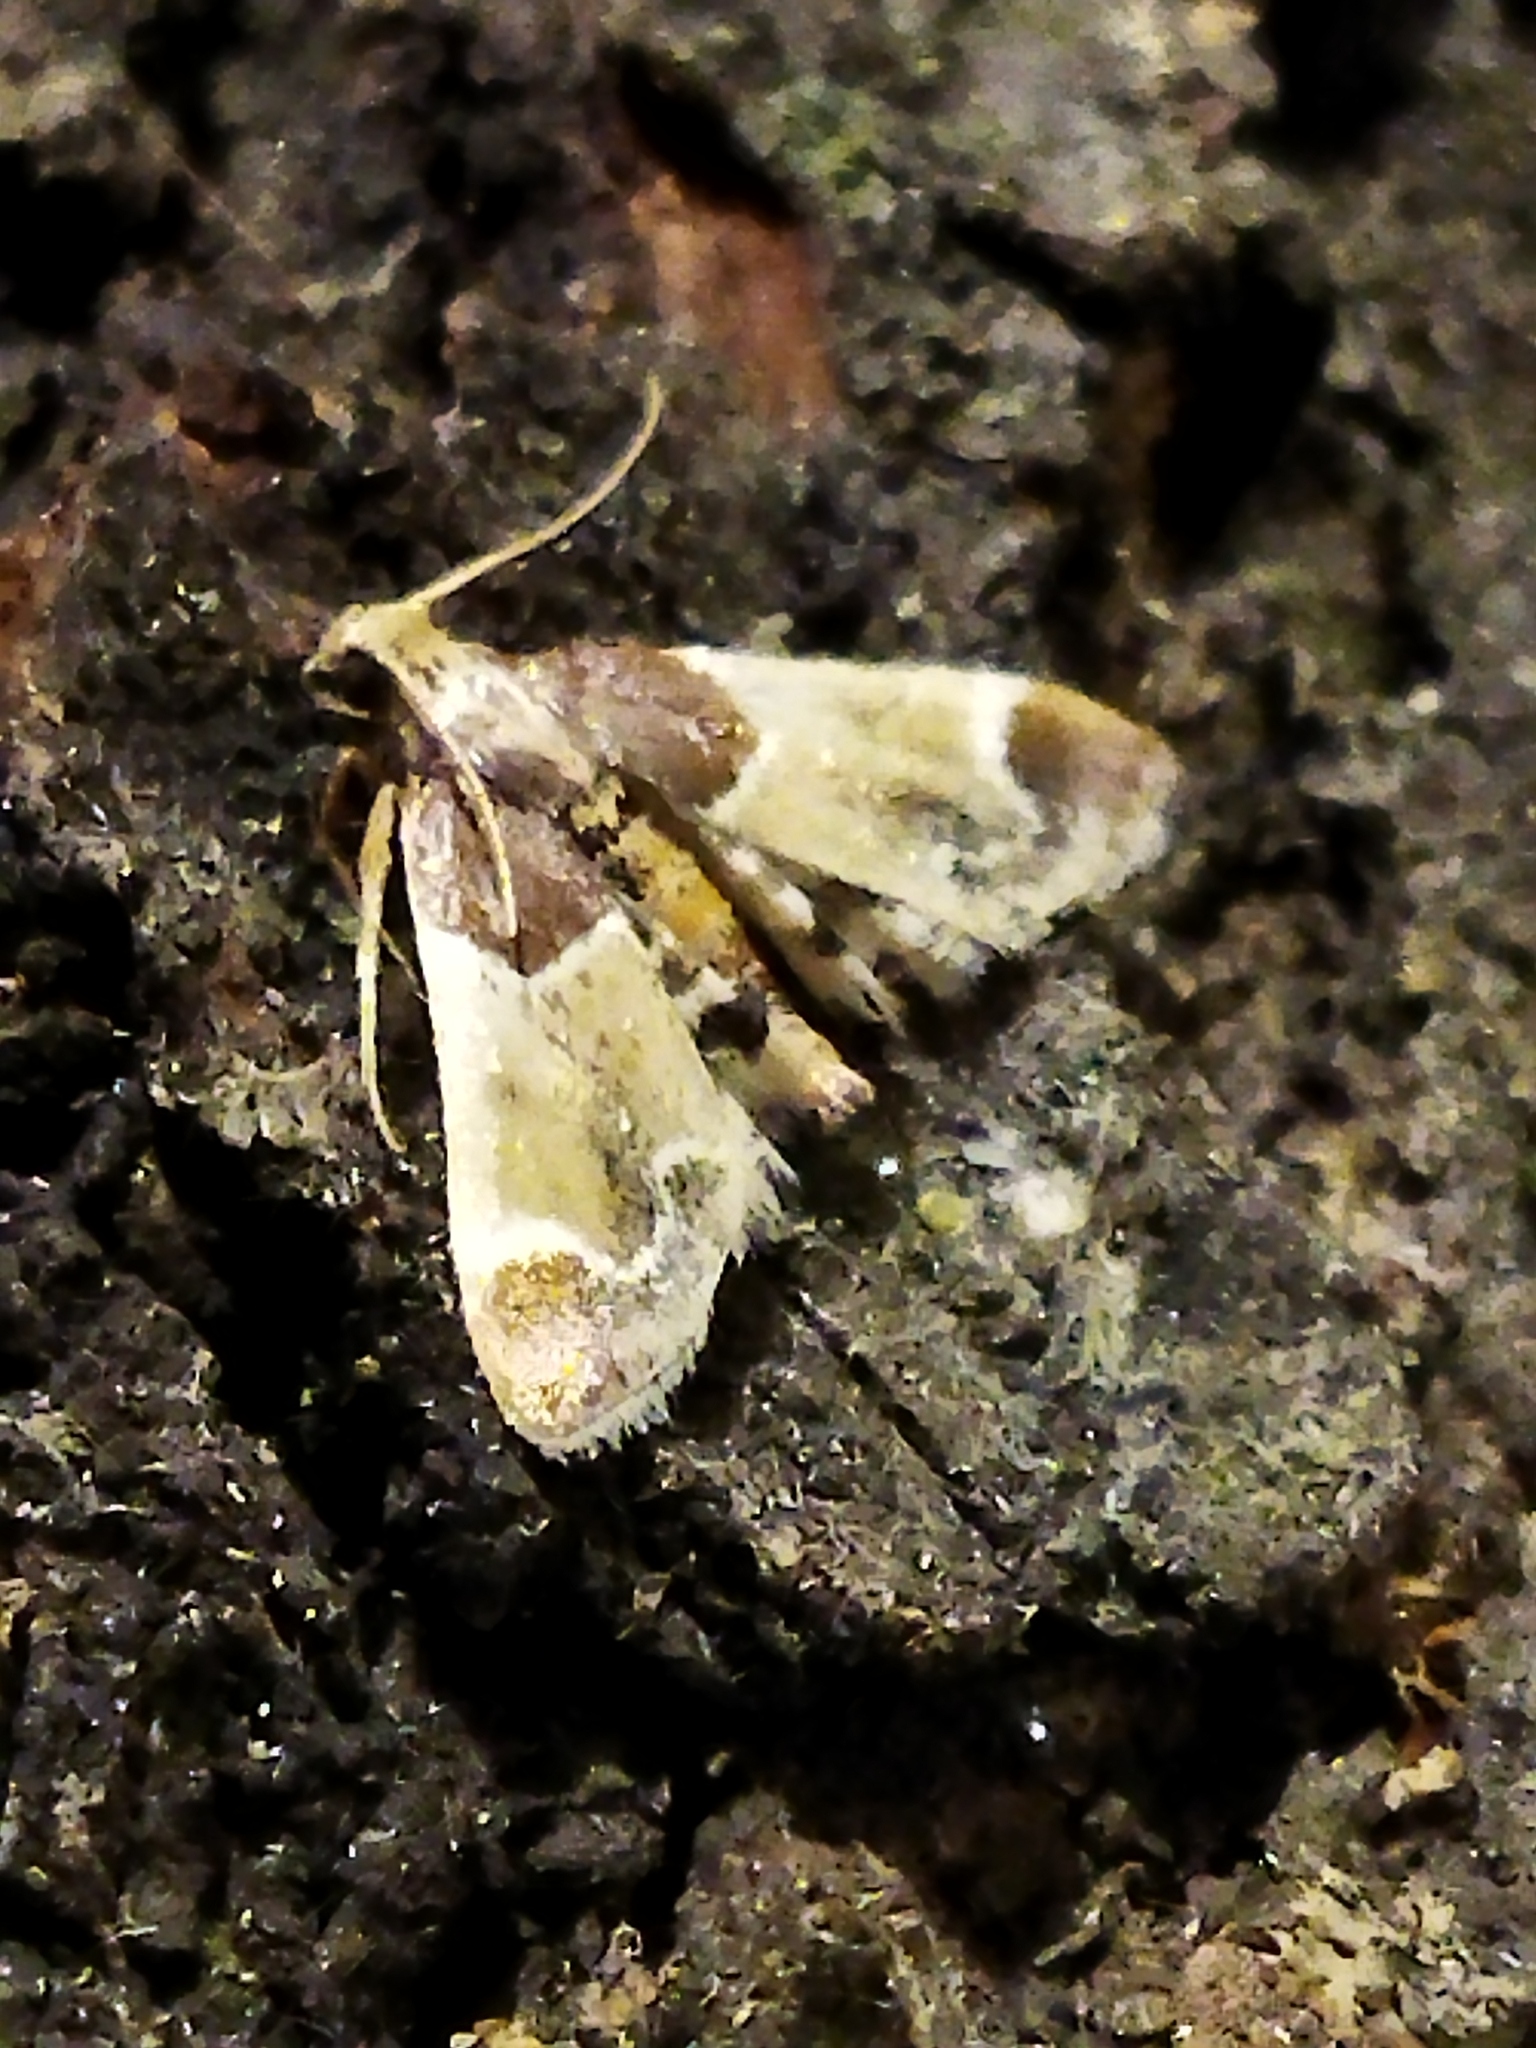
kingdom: Animalia
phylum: Arthropoda
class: Insecta
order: Lepidoptera
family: Pyralidae
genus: Pyralis
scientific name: Pyralis farinalis
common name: Meal moth
